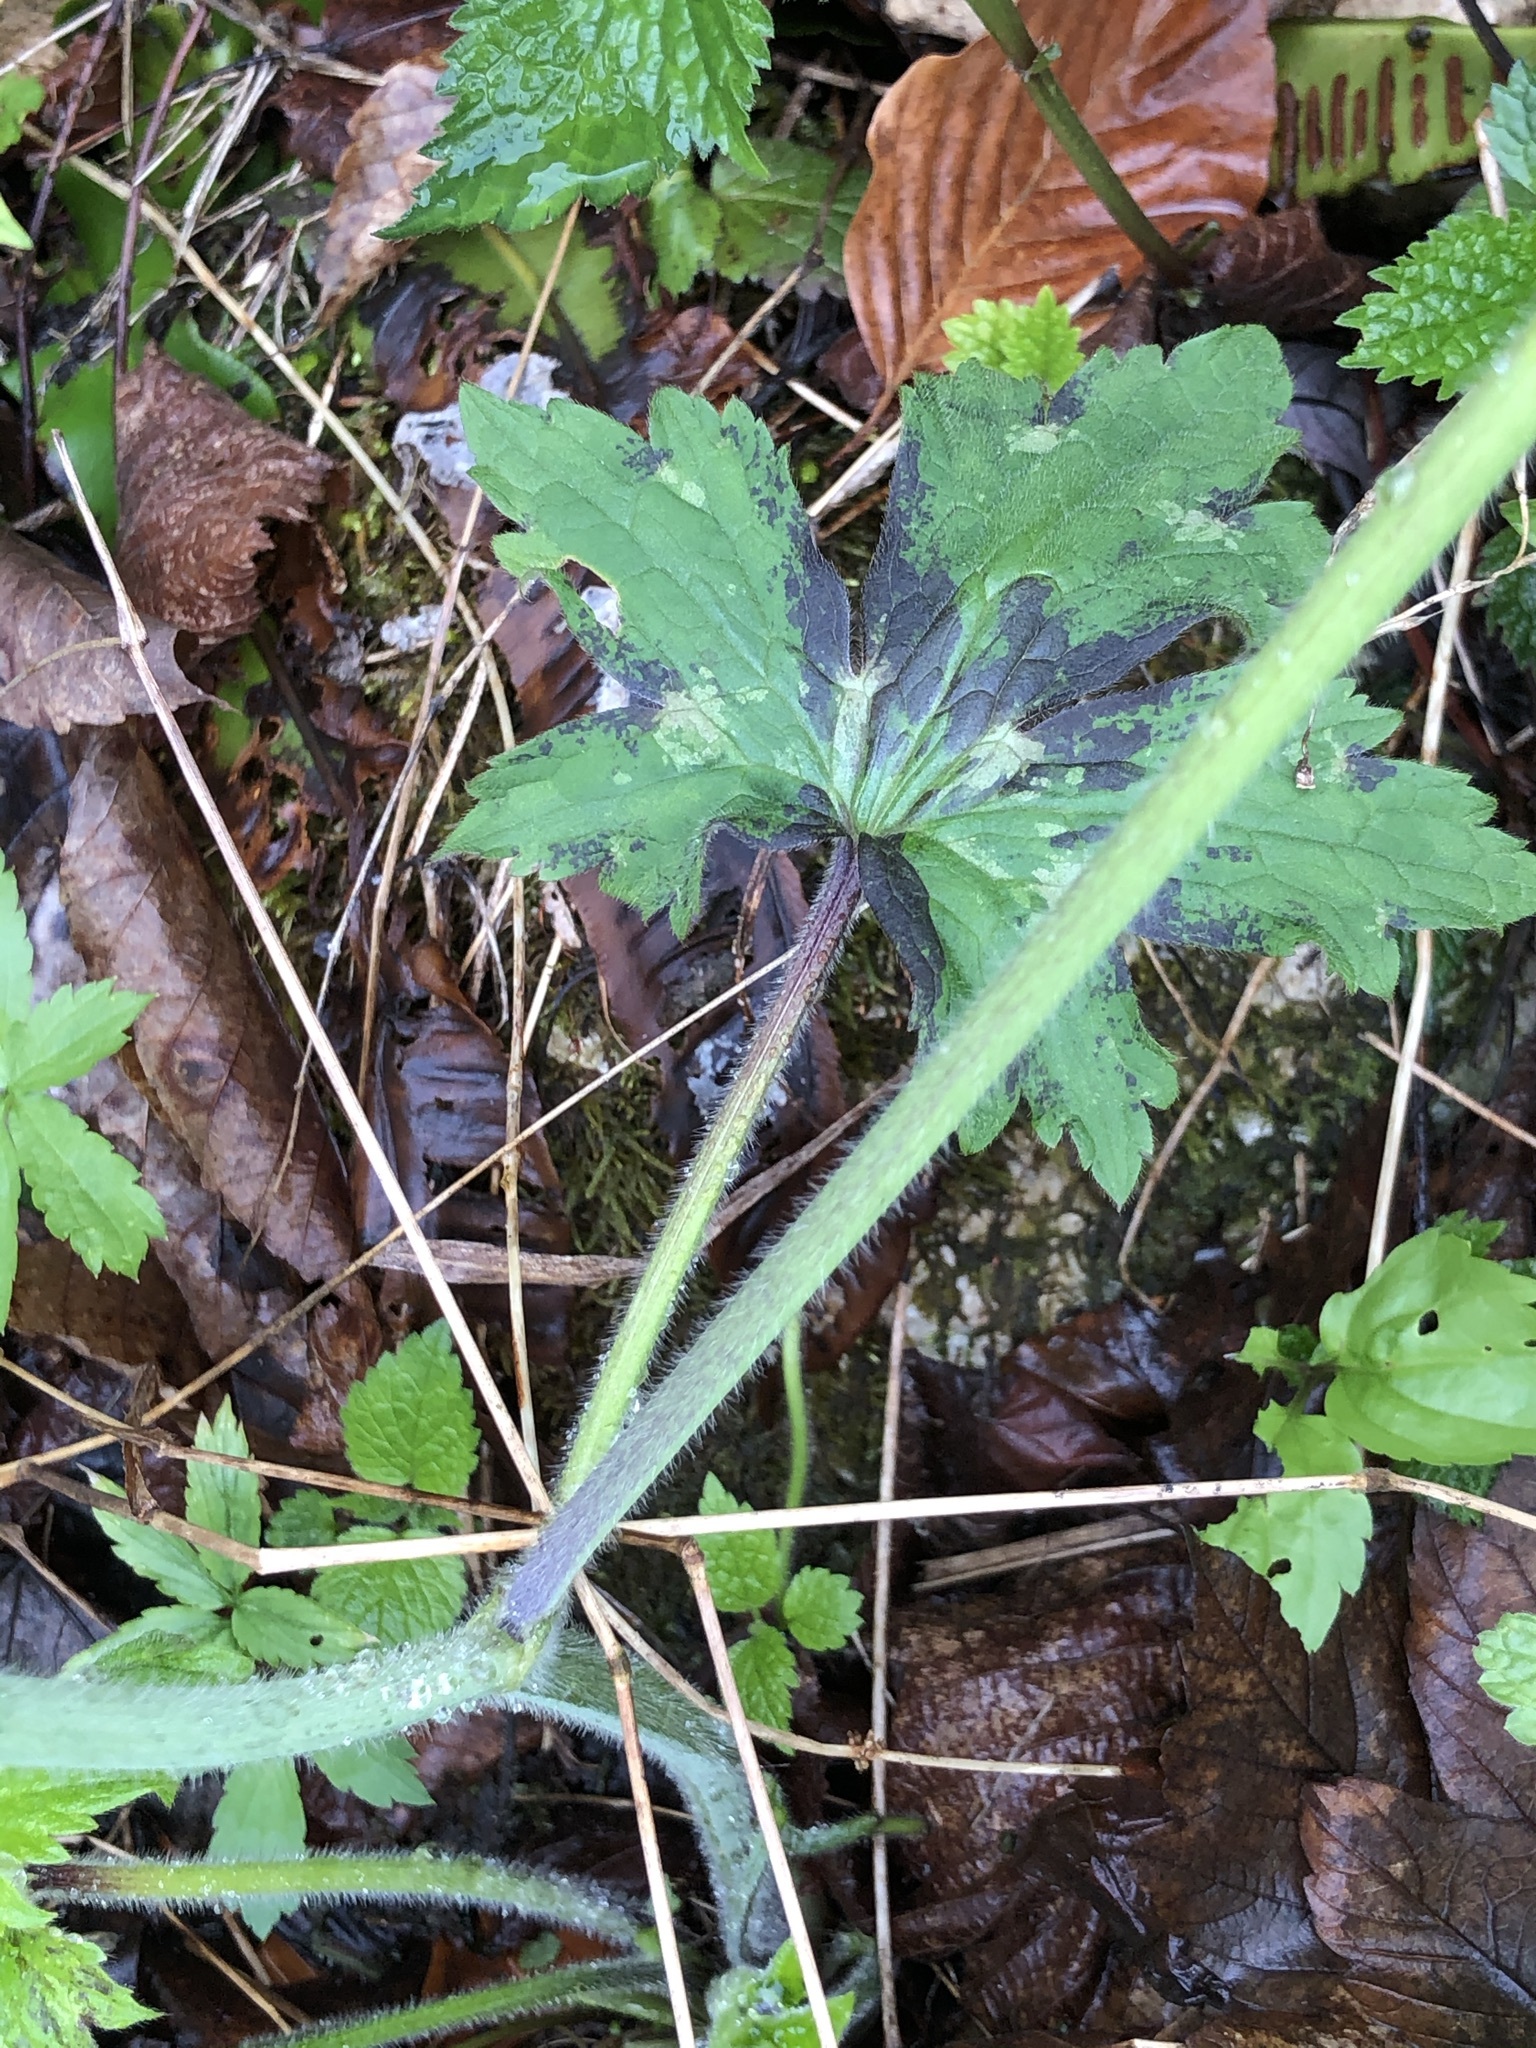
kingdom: Plantae
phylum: Tracheophyta
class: Magnoliopsida
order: Ranunculales
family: Ranunculaceae
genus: Ranunculus
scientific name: Ranunculus lanuginosus
